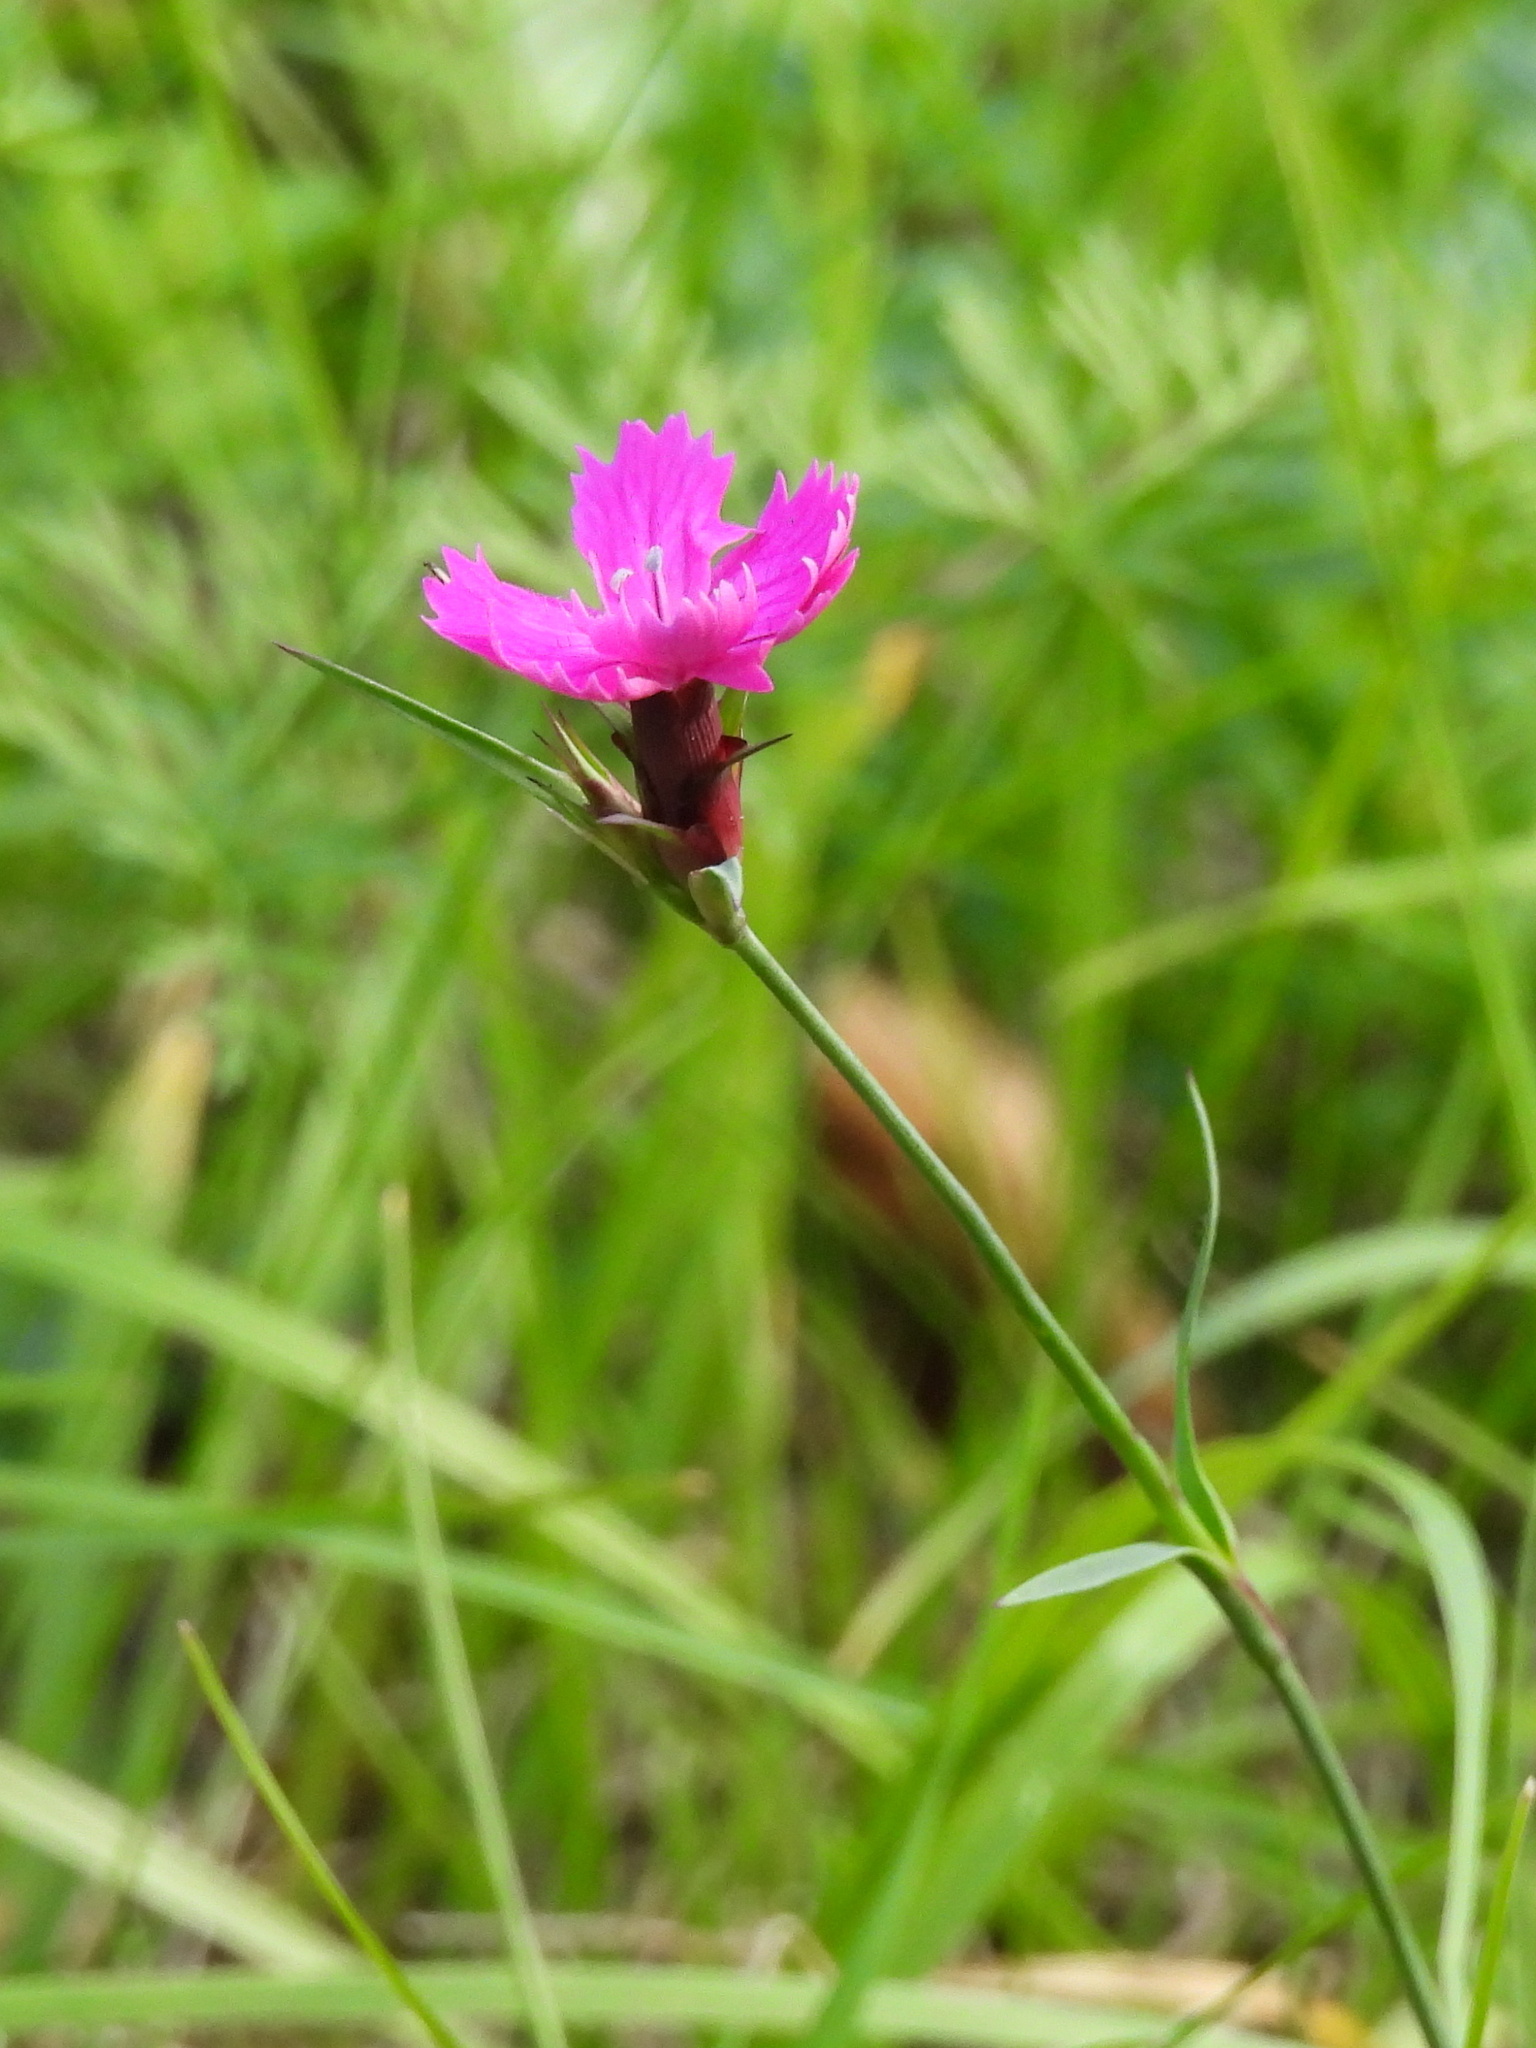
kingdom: Plantae
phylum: Tracheophyta
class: Magnoliopsida
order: Caryophyllales
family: Caryophyllaceae
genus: Dianthus
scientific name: Dianthus carthusianorum
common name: Carthusian pink
